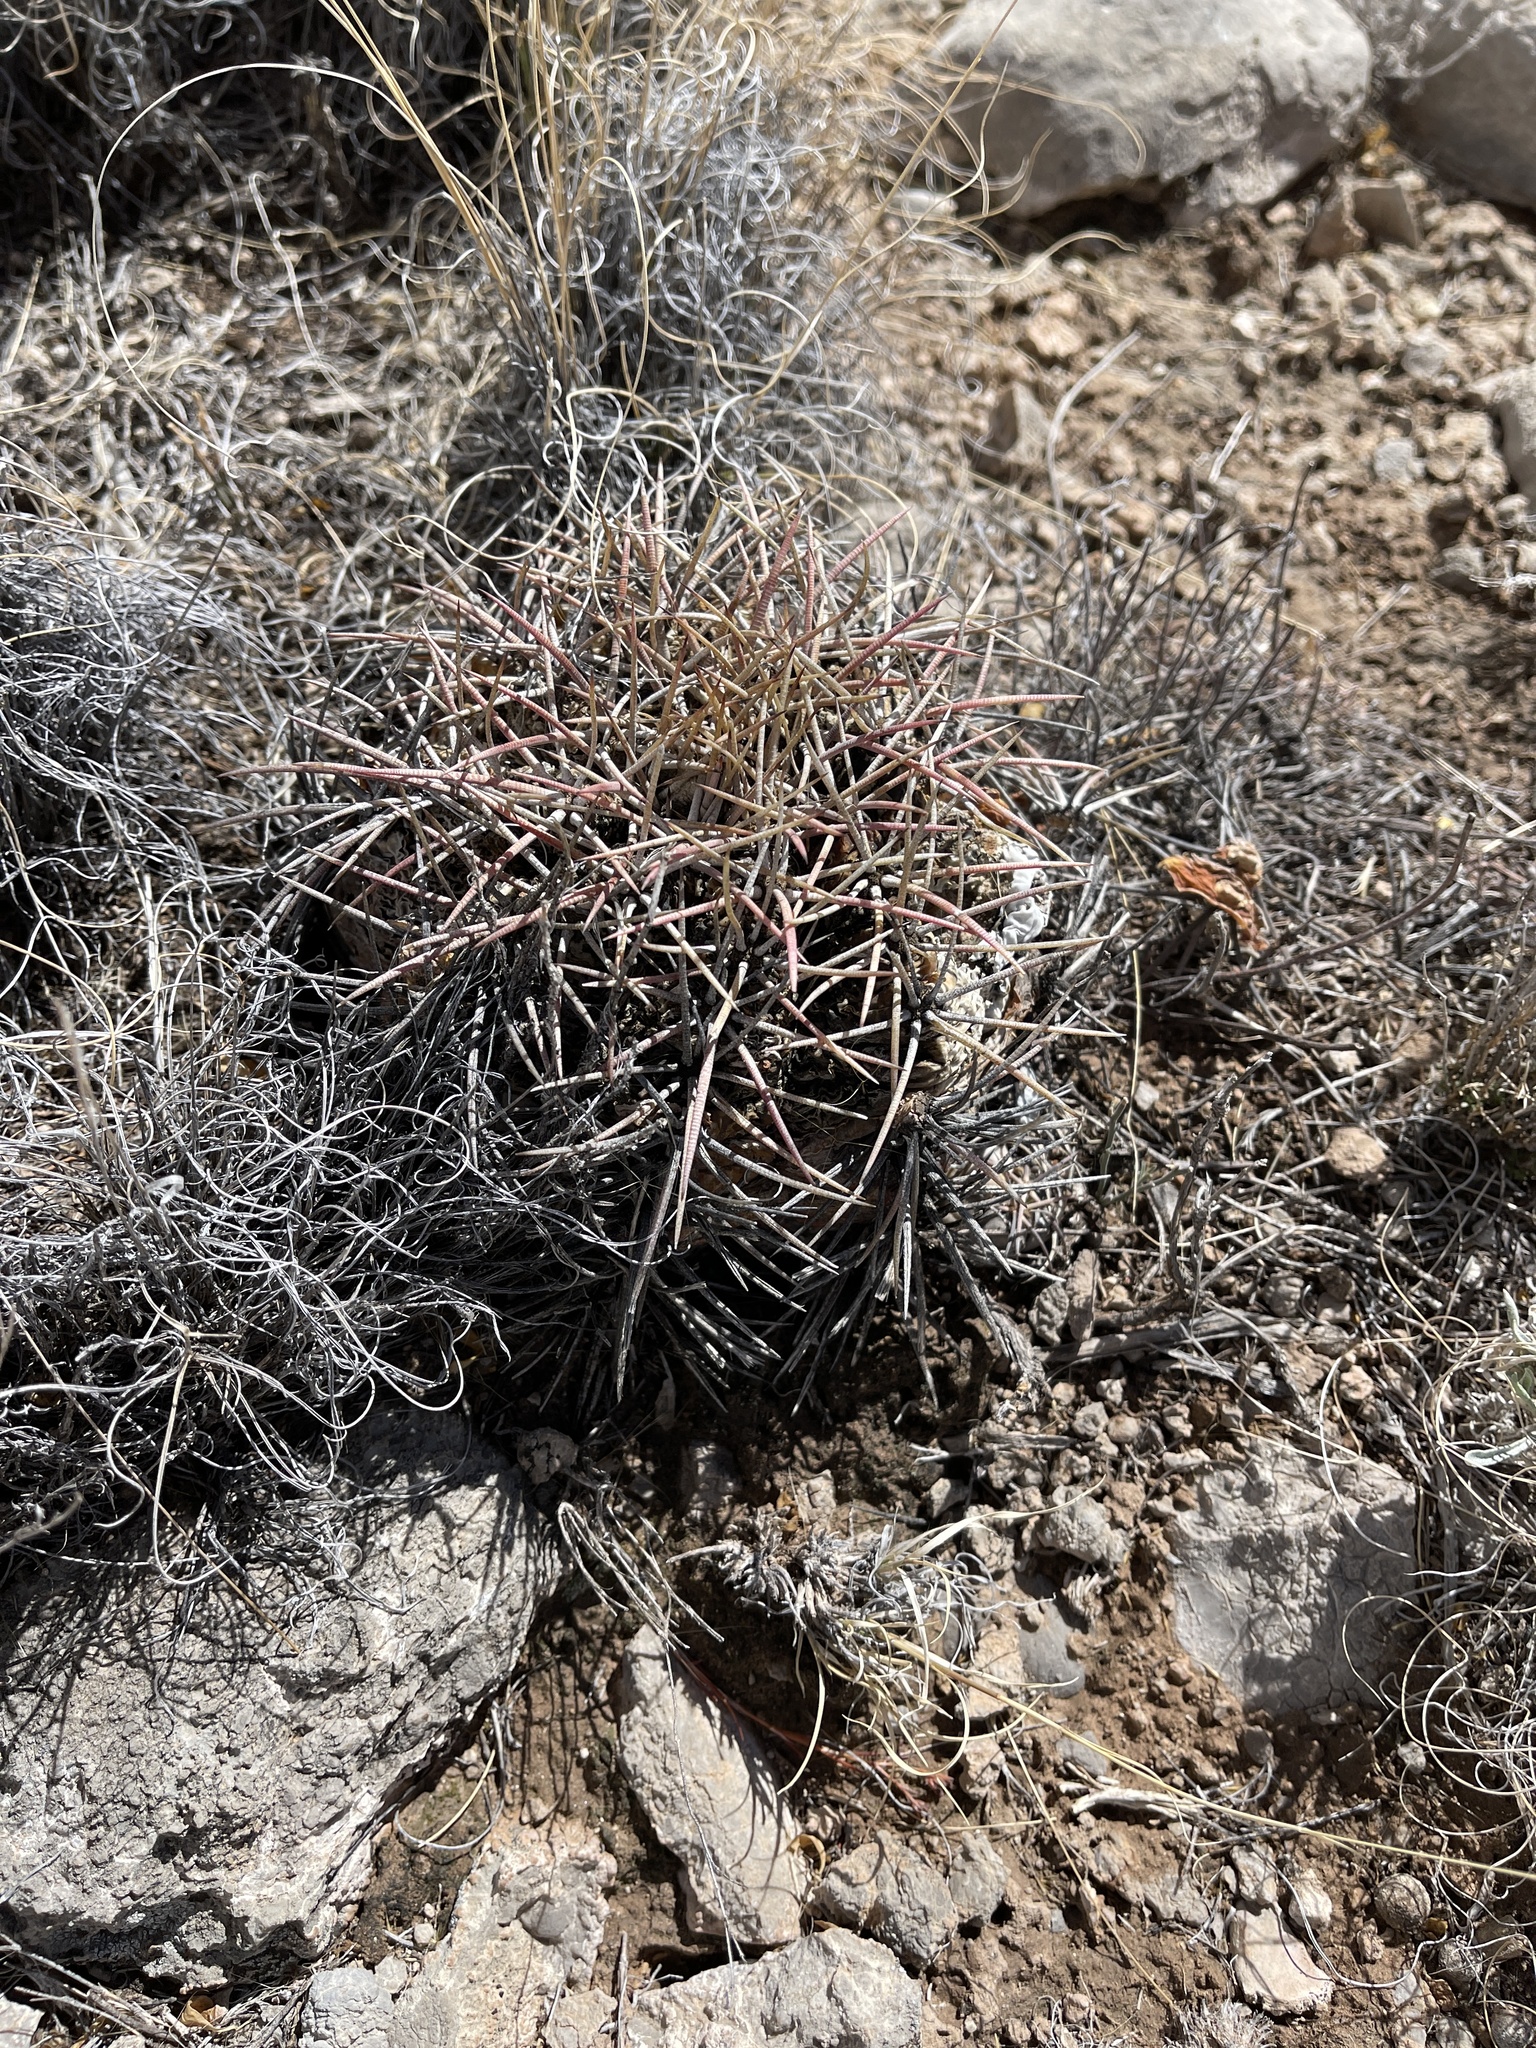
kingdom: Plantae
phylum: Tracheophyta
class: Magnoliopsida
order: Caryophyllales
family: Cactaceae
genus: Echinocactus
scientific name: Echinocactus horizonthalonius
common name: Devilshead
